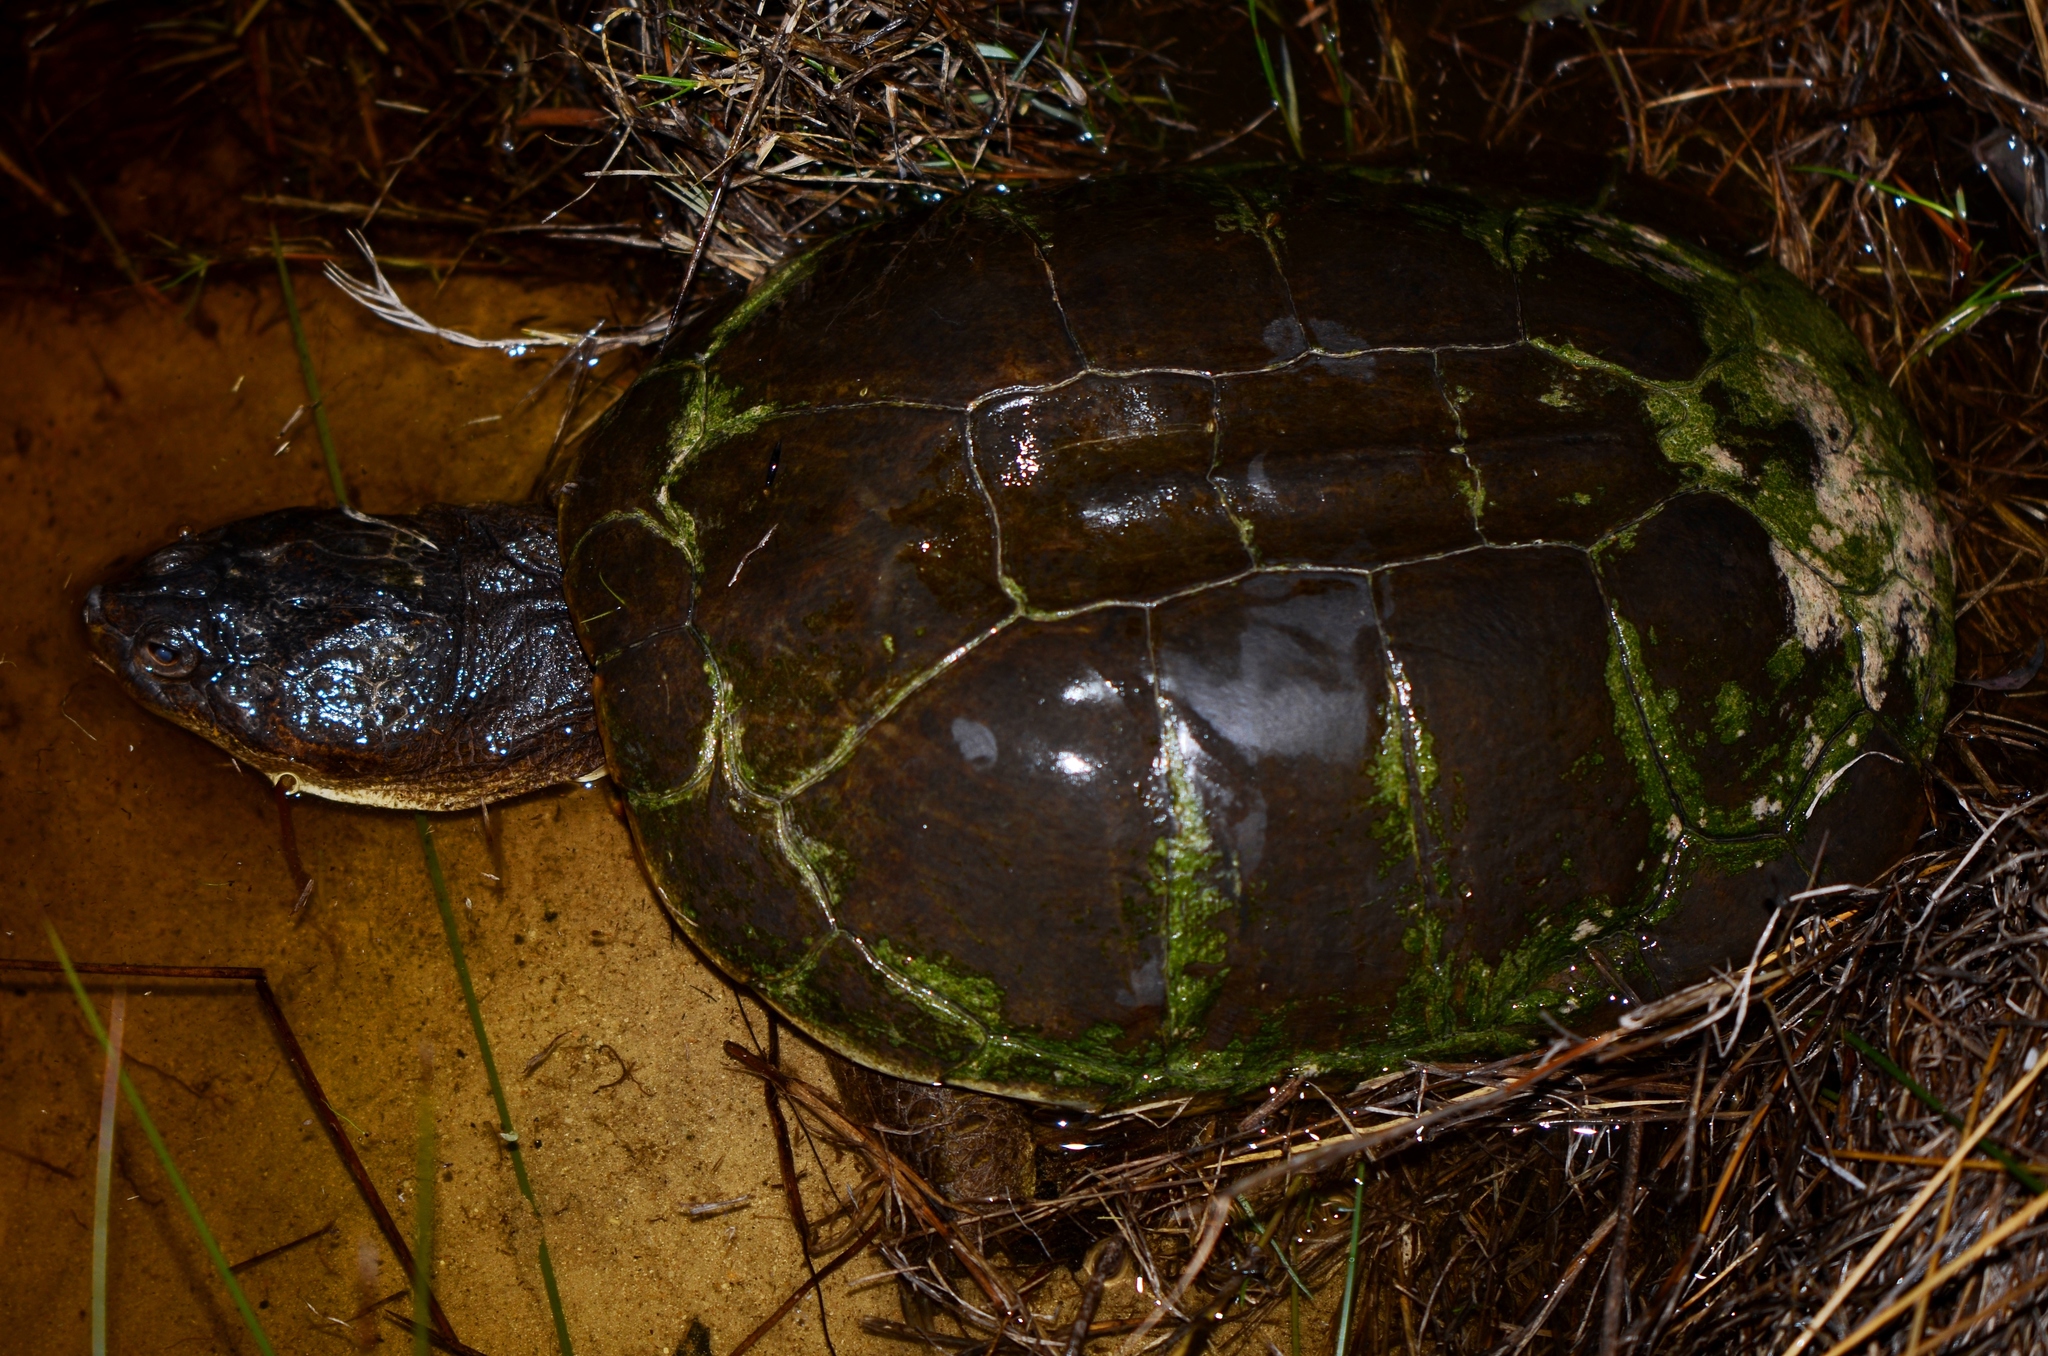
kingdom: Animalia
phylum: Chordata
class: Testudines
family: Pelomedusidae
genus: Pelomedusa
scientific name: Pelomedusa galeata
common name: South african helmeted terrapin
